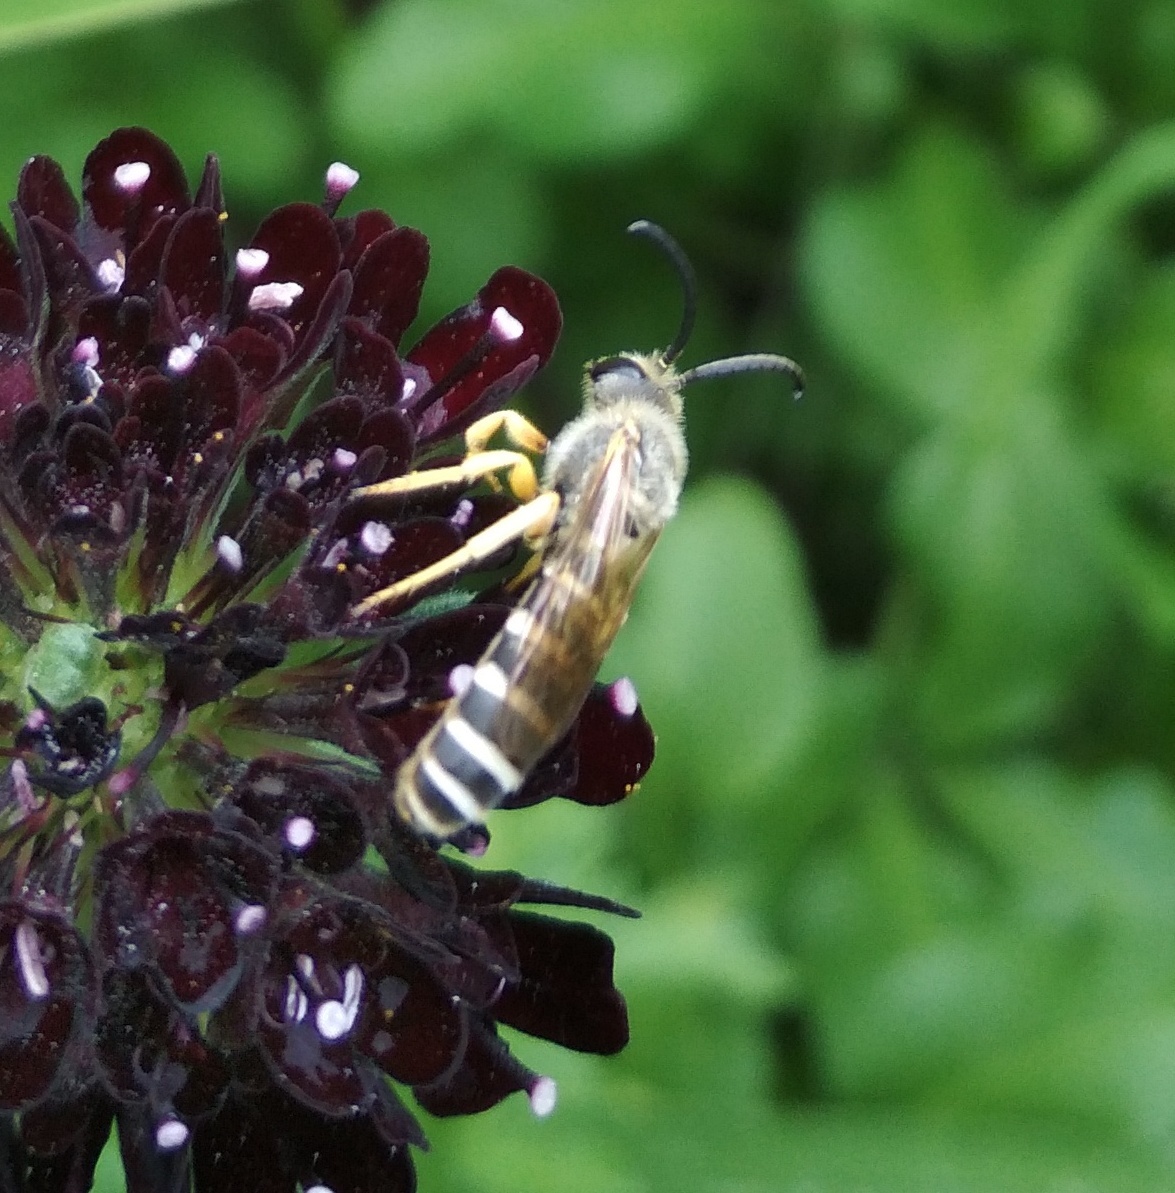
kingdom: Animalia
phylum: Arthropoda
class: Insecta
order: Hymenoptera
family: Halictidae
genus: Halictus
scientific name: Halictus scabiosae
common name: Great banded furrow bee
